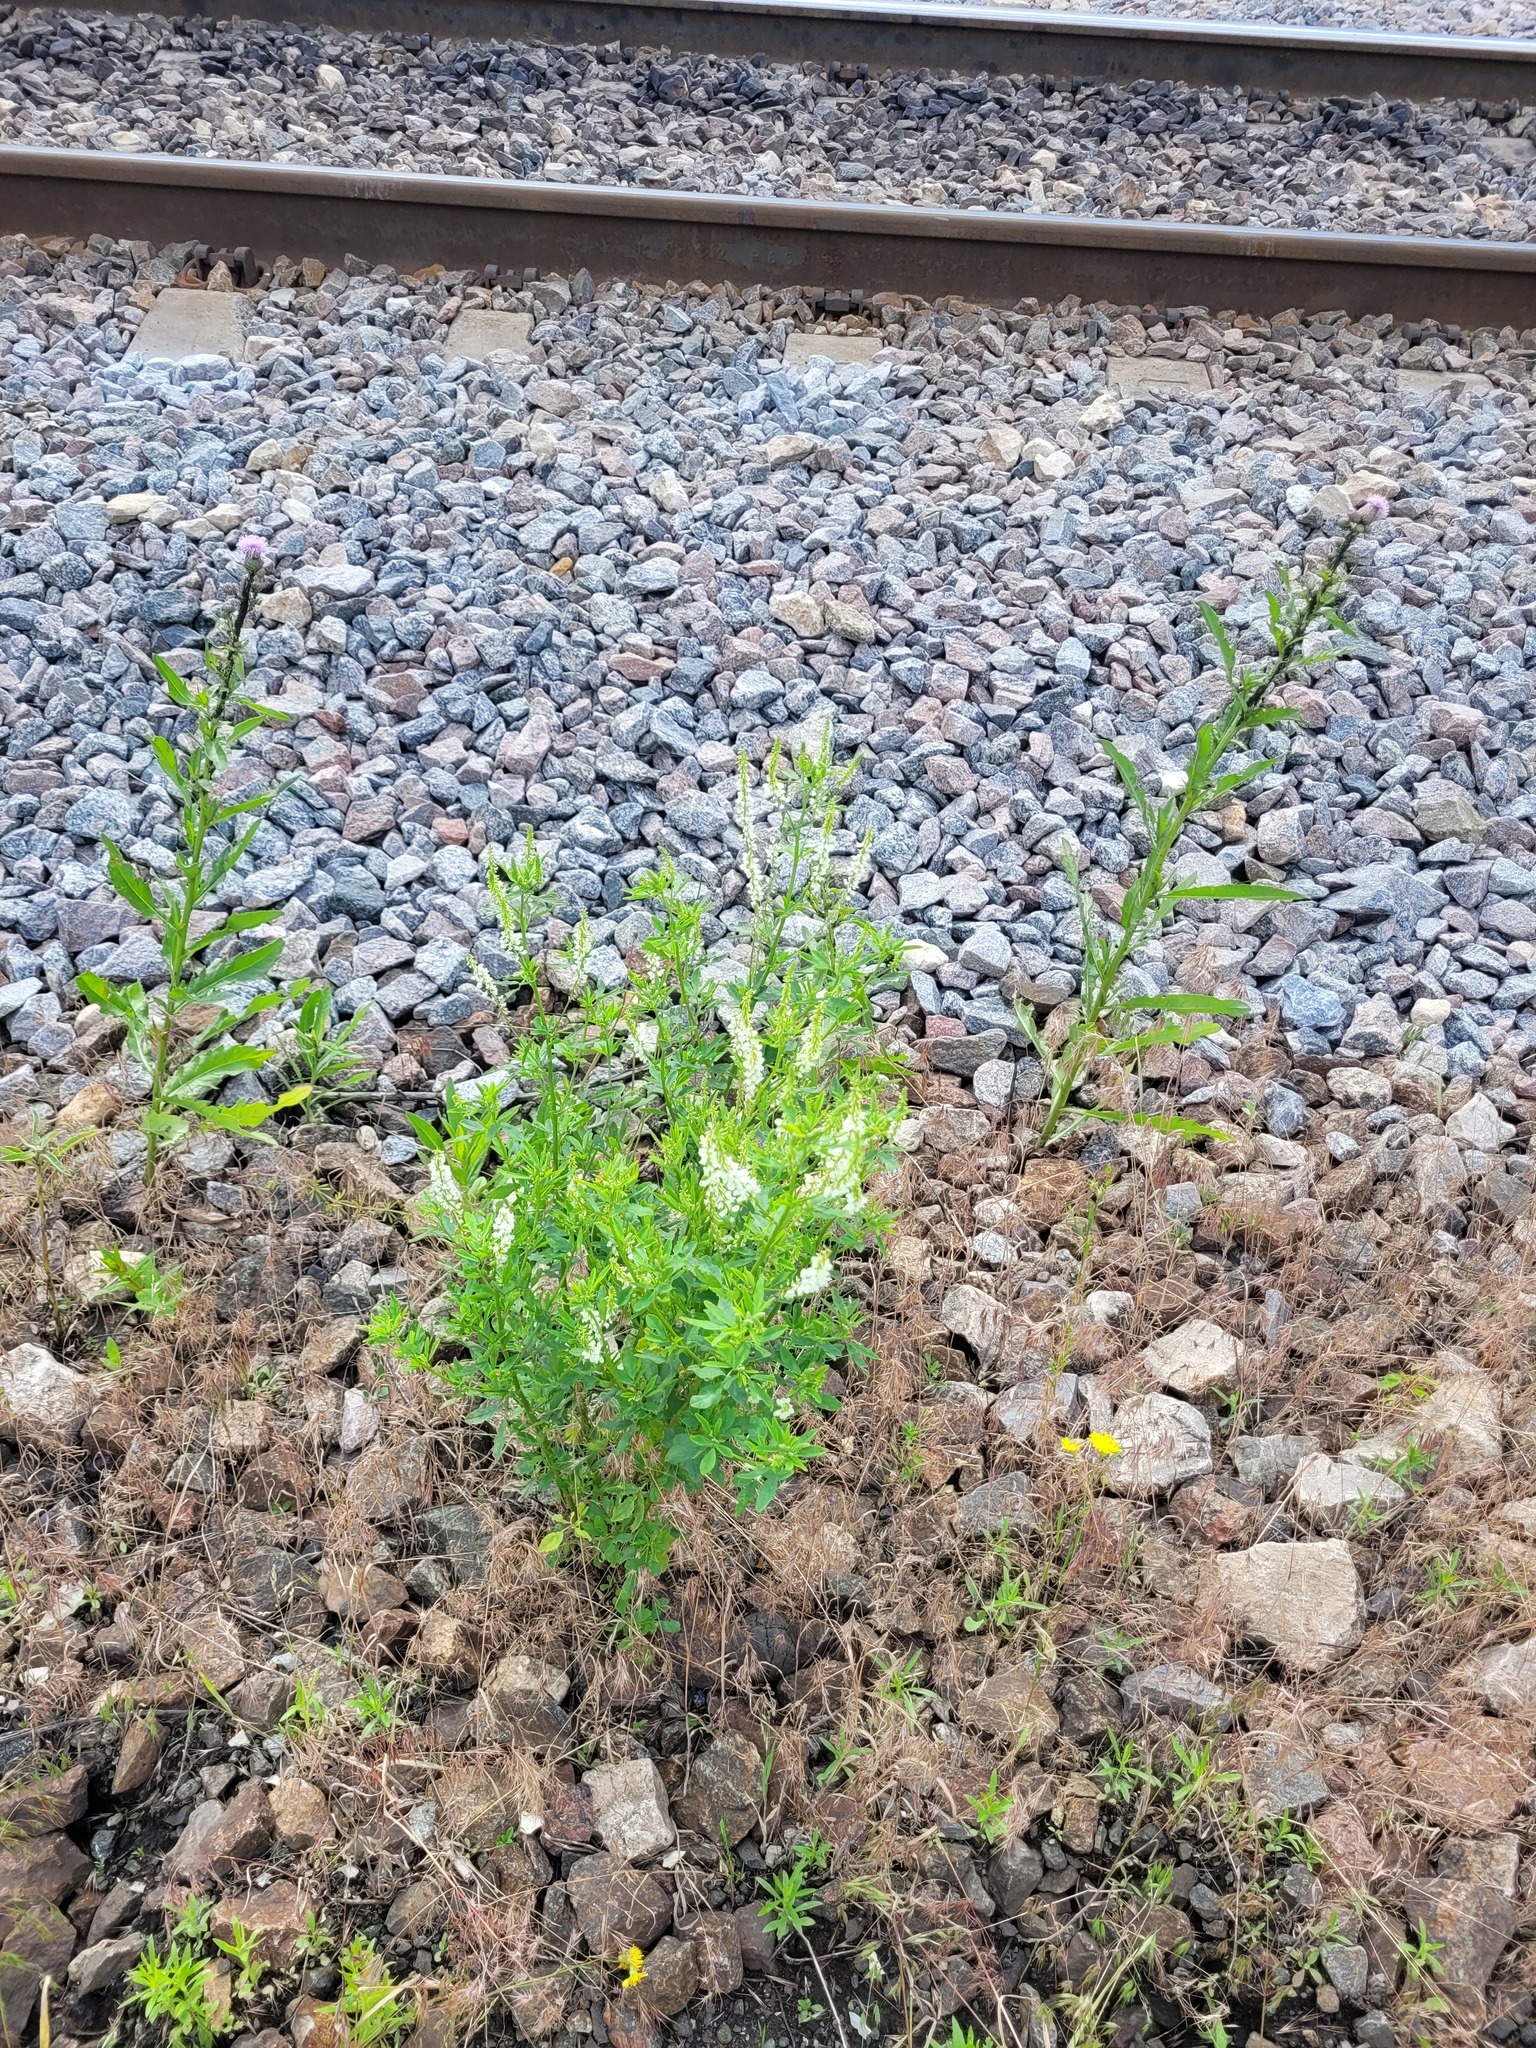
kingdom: Plantae
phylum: Tracheophyta
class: Magnoliopsida
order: Fabales
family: Fabaceae
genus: Melilotus
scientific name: Melilotus albus
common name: White melilot
